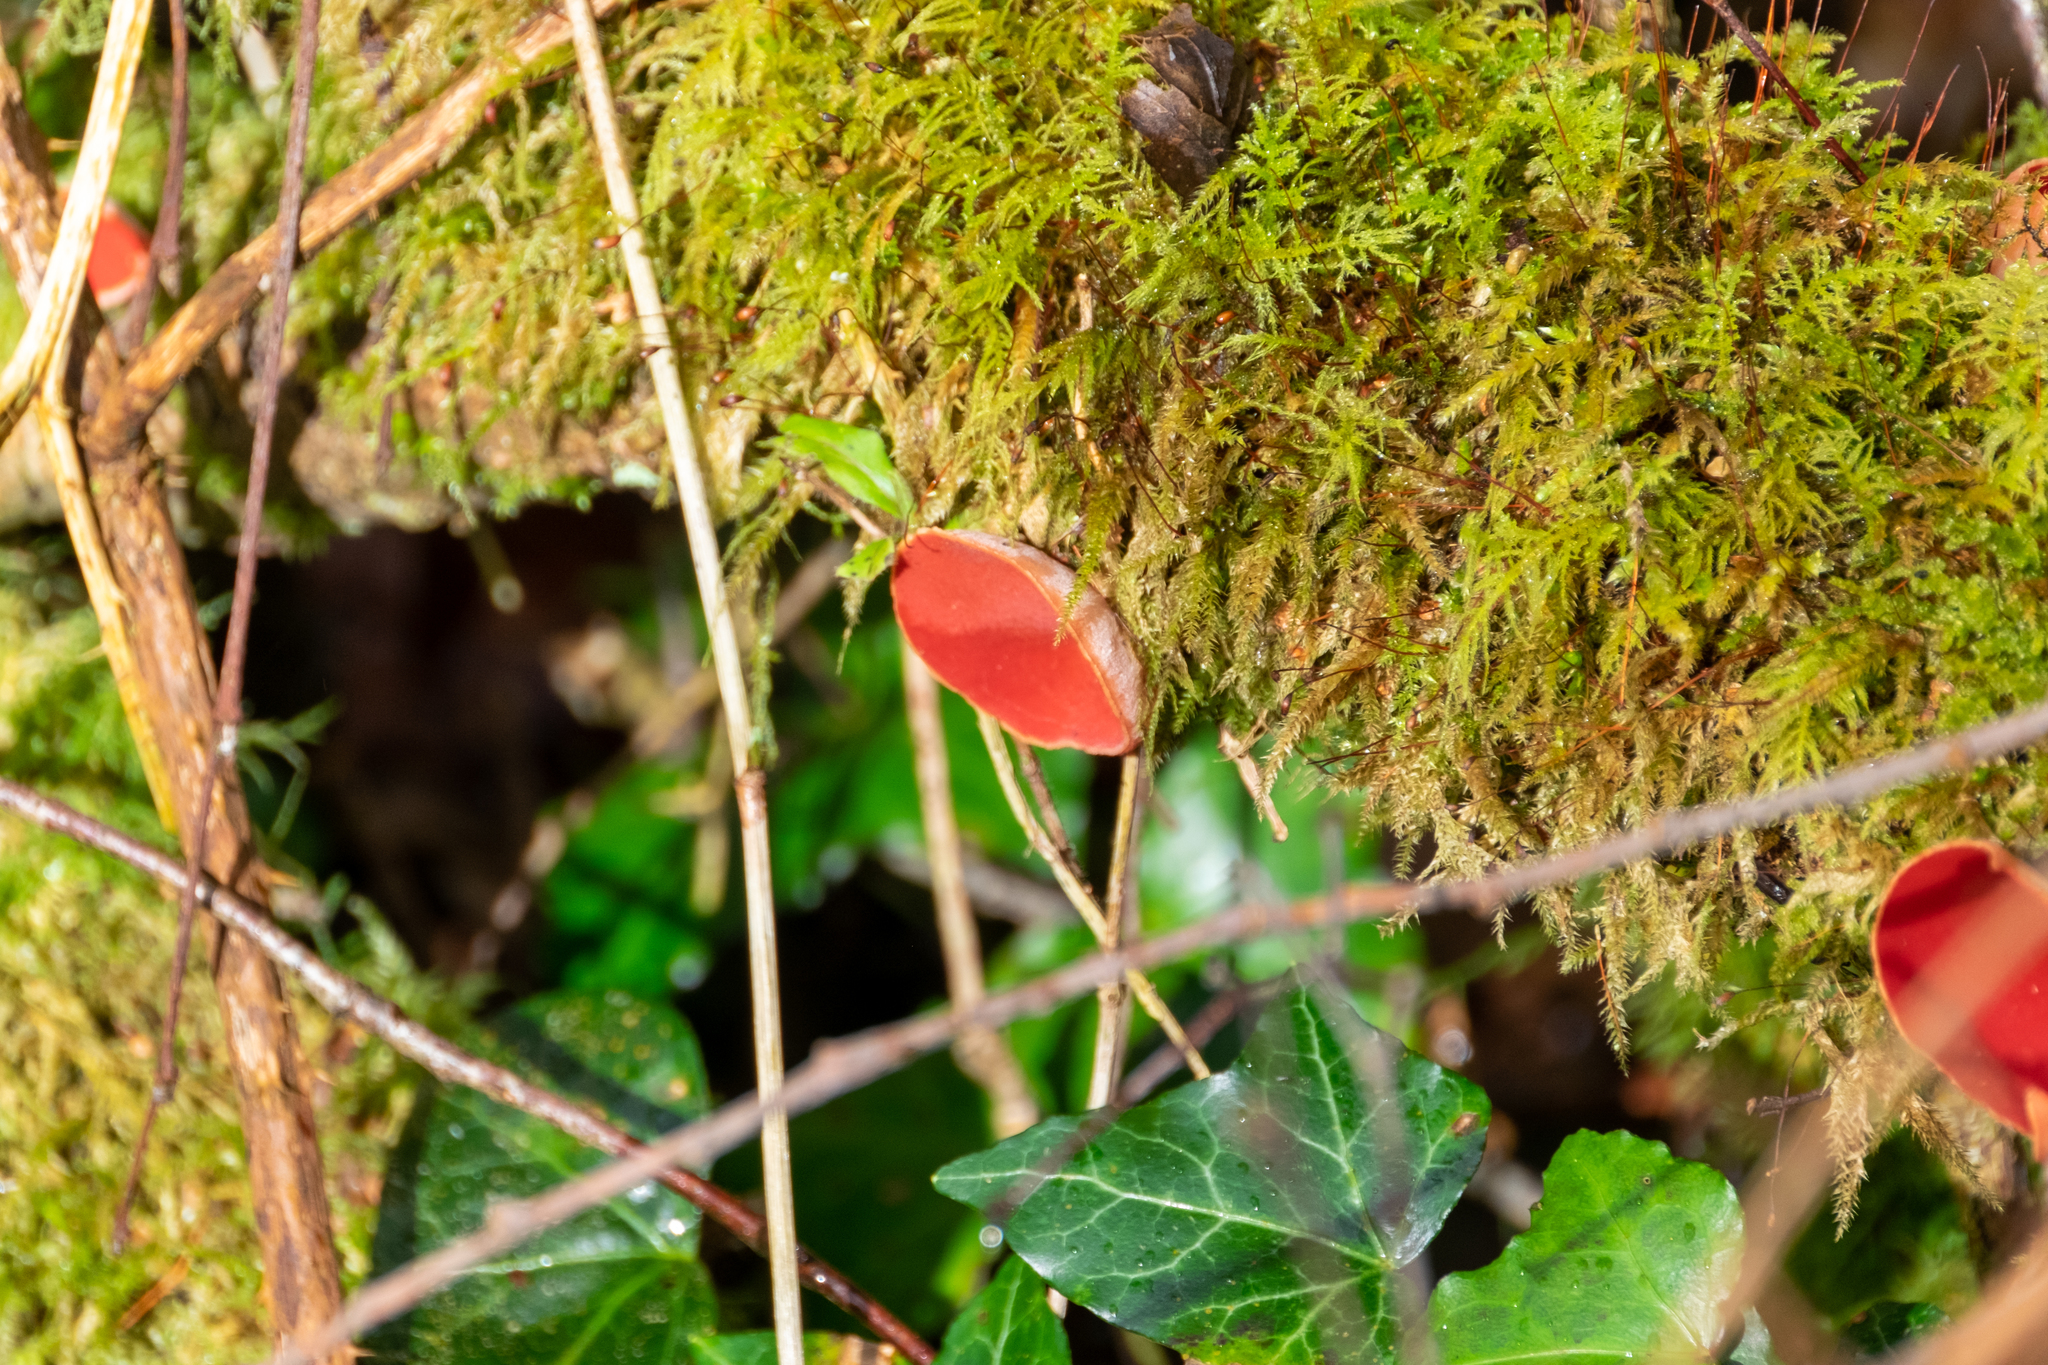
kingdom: Fungi
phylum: Ascomycota
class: Pezizomycetes
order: Pezizales
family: Sarcoscyphaceae
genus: Sarcoscypha
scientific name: Sarcoscypha
